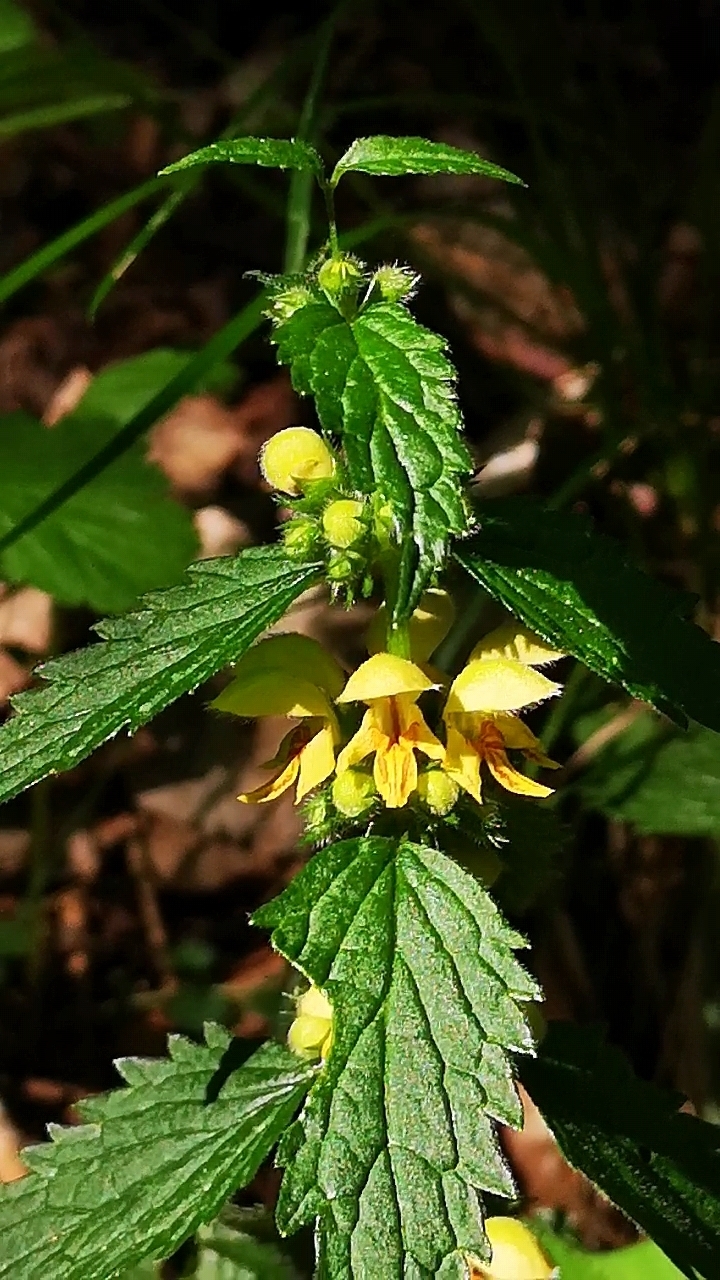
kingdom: Plantae
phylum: Tracheophyta
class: Magnoliopsida
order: Lamiales
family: Lamiaceae
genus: Lamium
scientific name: Lamium galeobdolon
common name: Yellow archangel
